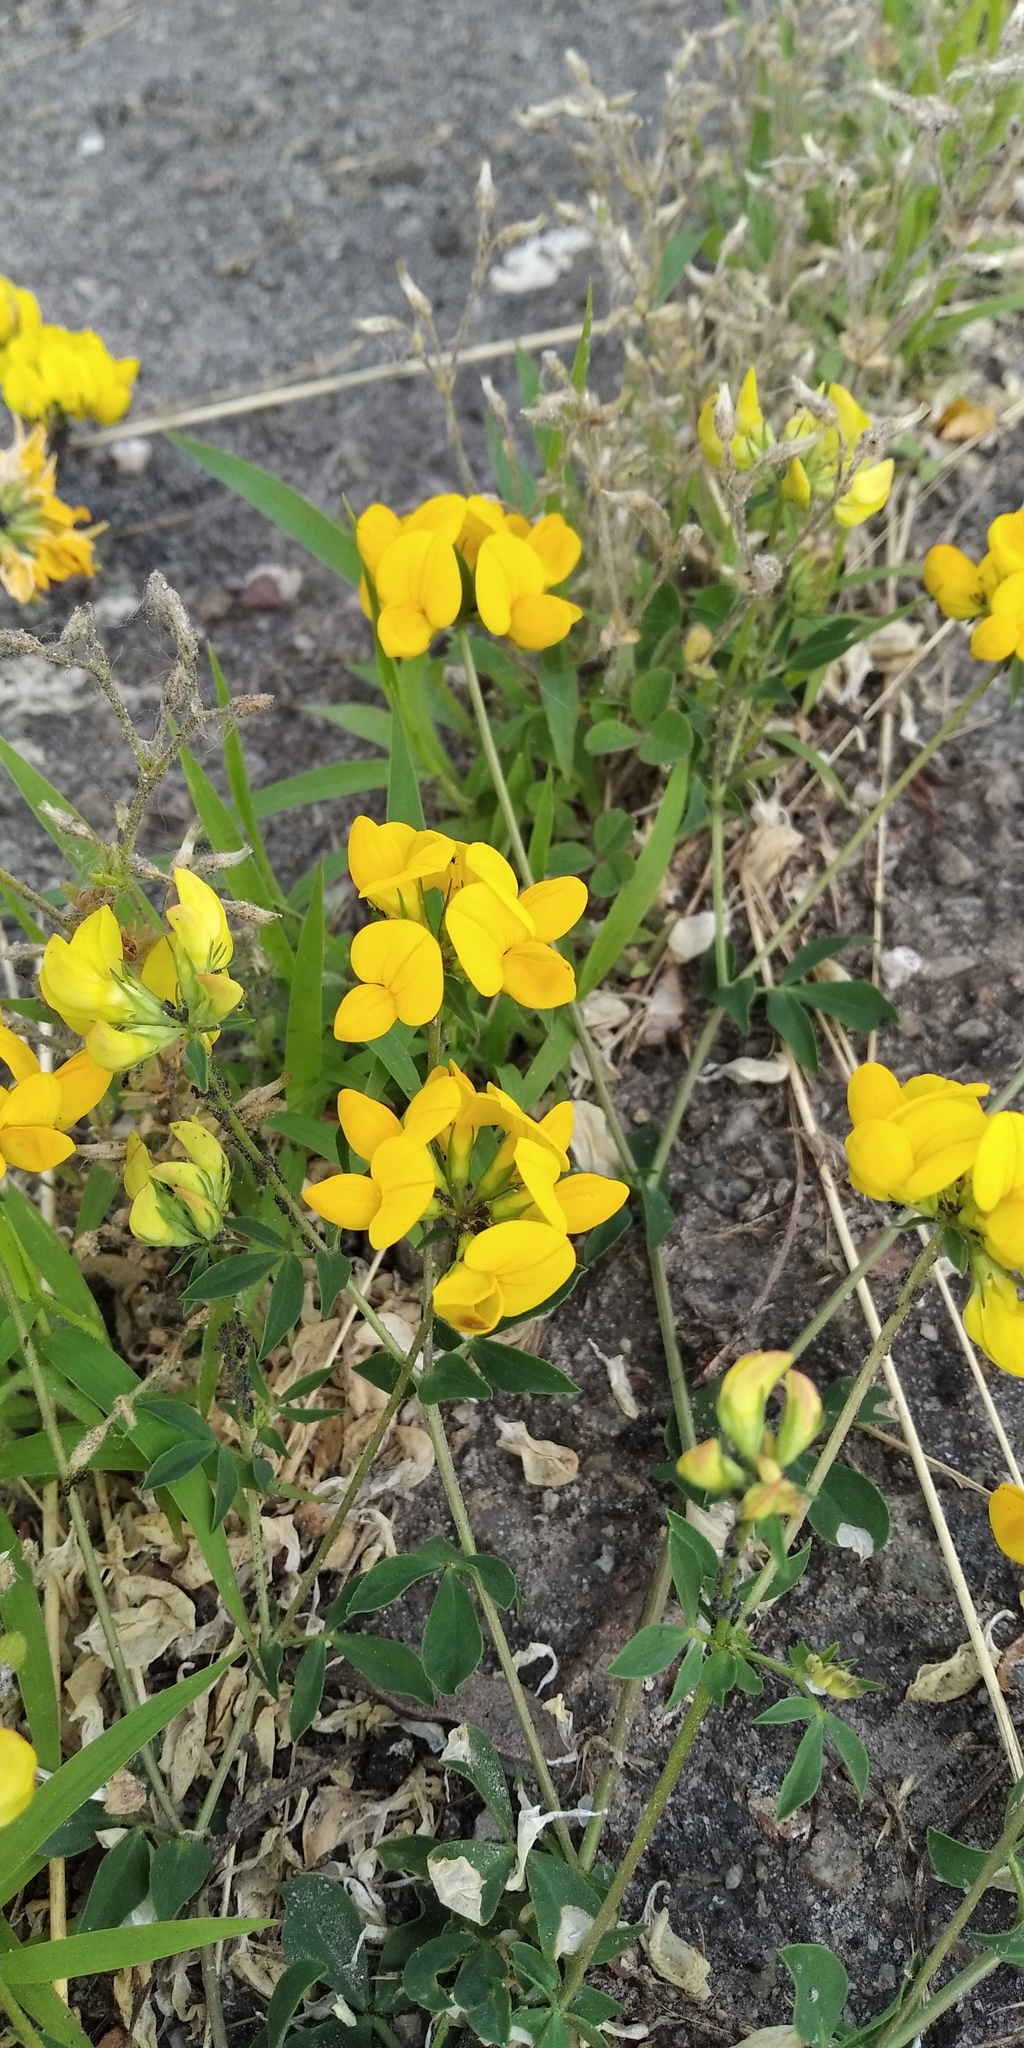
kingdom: Plantae
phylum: Tracheophyta
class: Magnoliopsida
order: Fabales
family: Fabaceae
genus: Lotus
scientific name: Lotus corniculatus
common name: Common bird's-foot-trefoil
